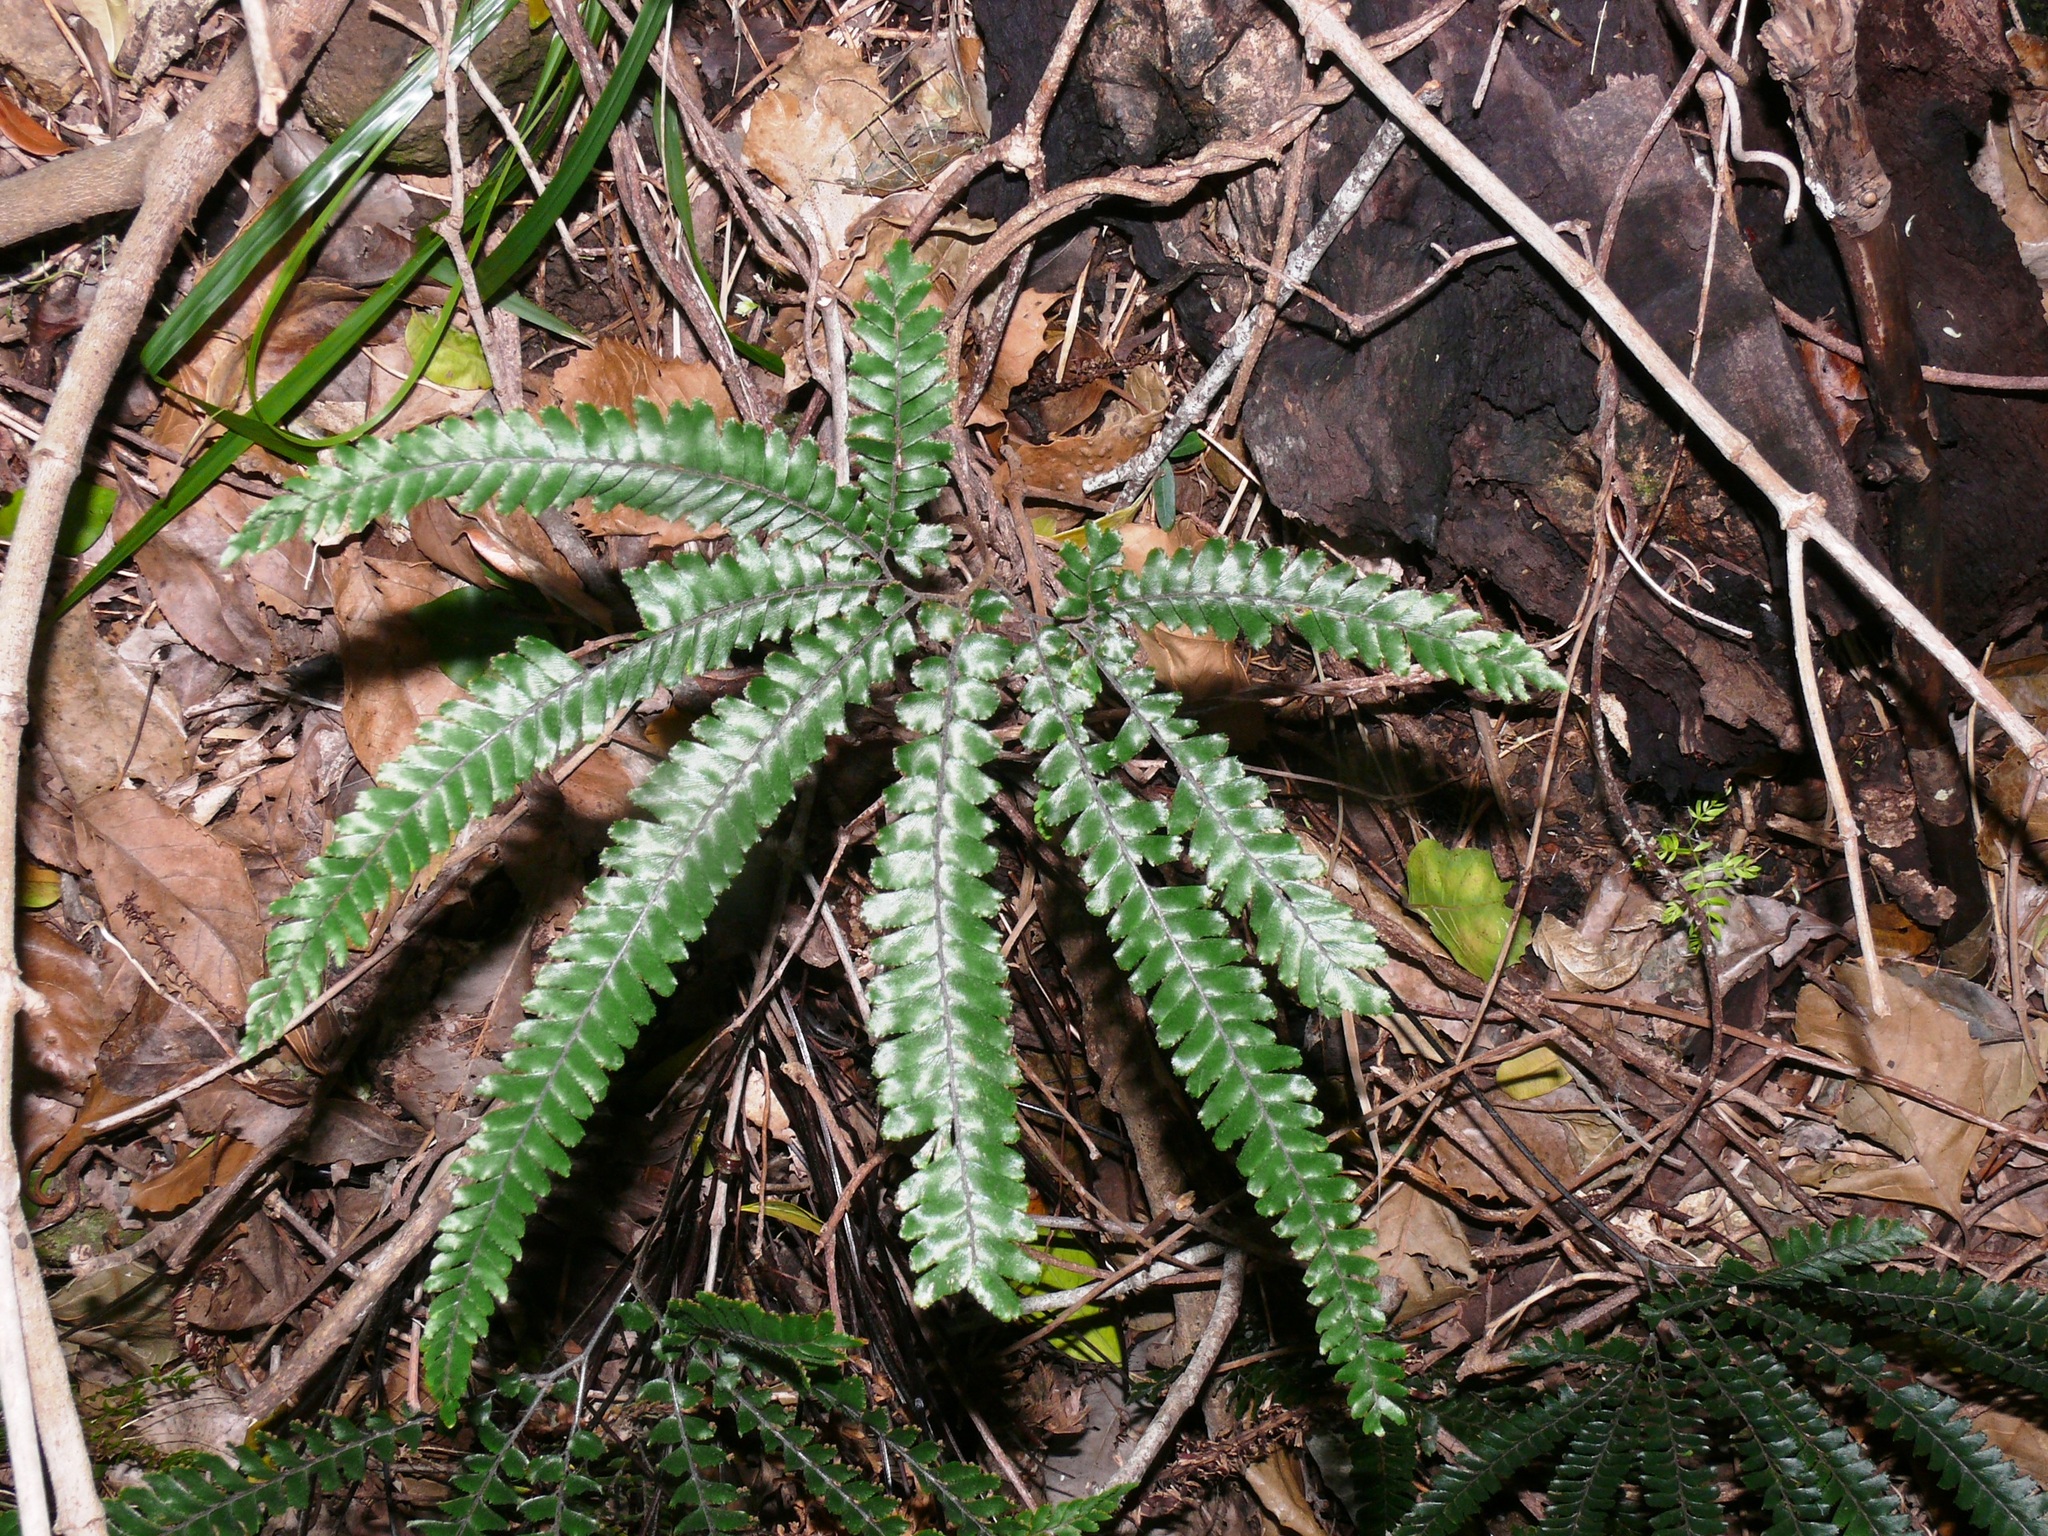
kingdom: Plantae
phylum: Tracheophyta
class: Polypodiopsida
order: Polypodiales
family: Pteridaceae
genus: Adiantum
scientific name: Adiantum hispidulum
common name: Rough maidenhair
